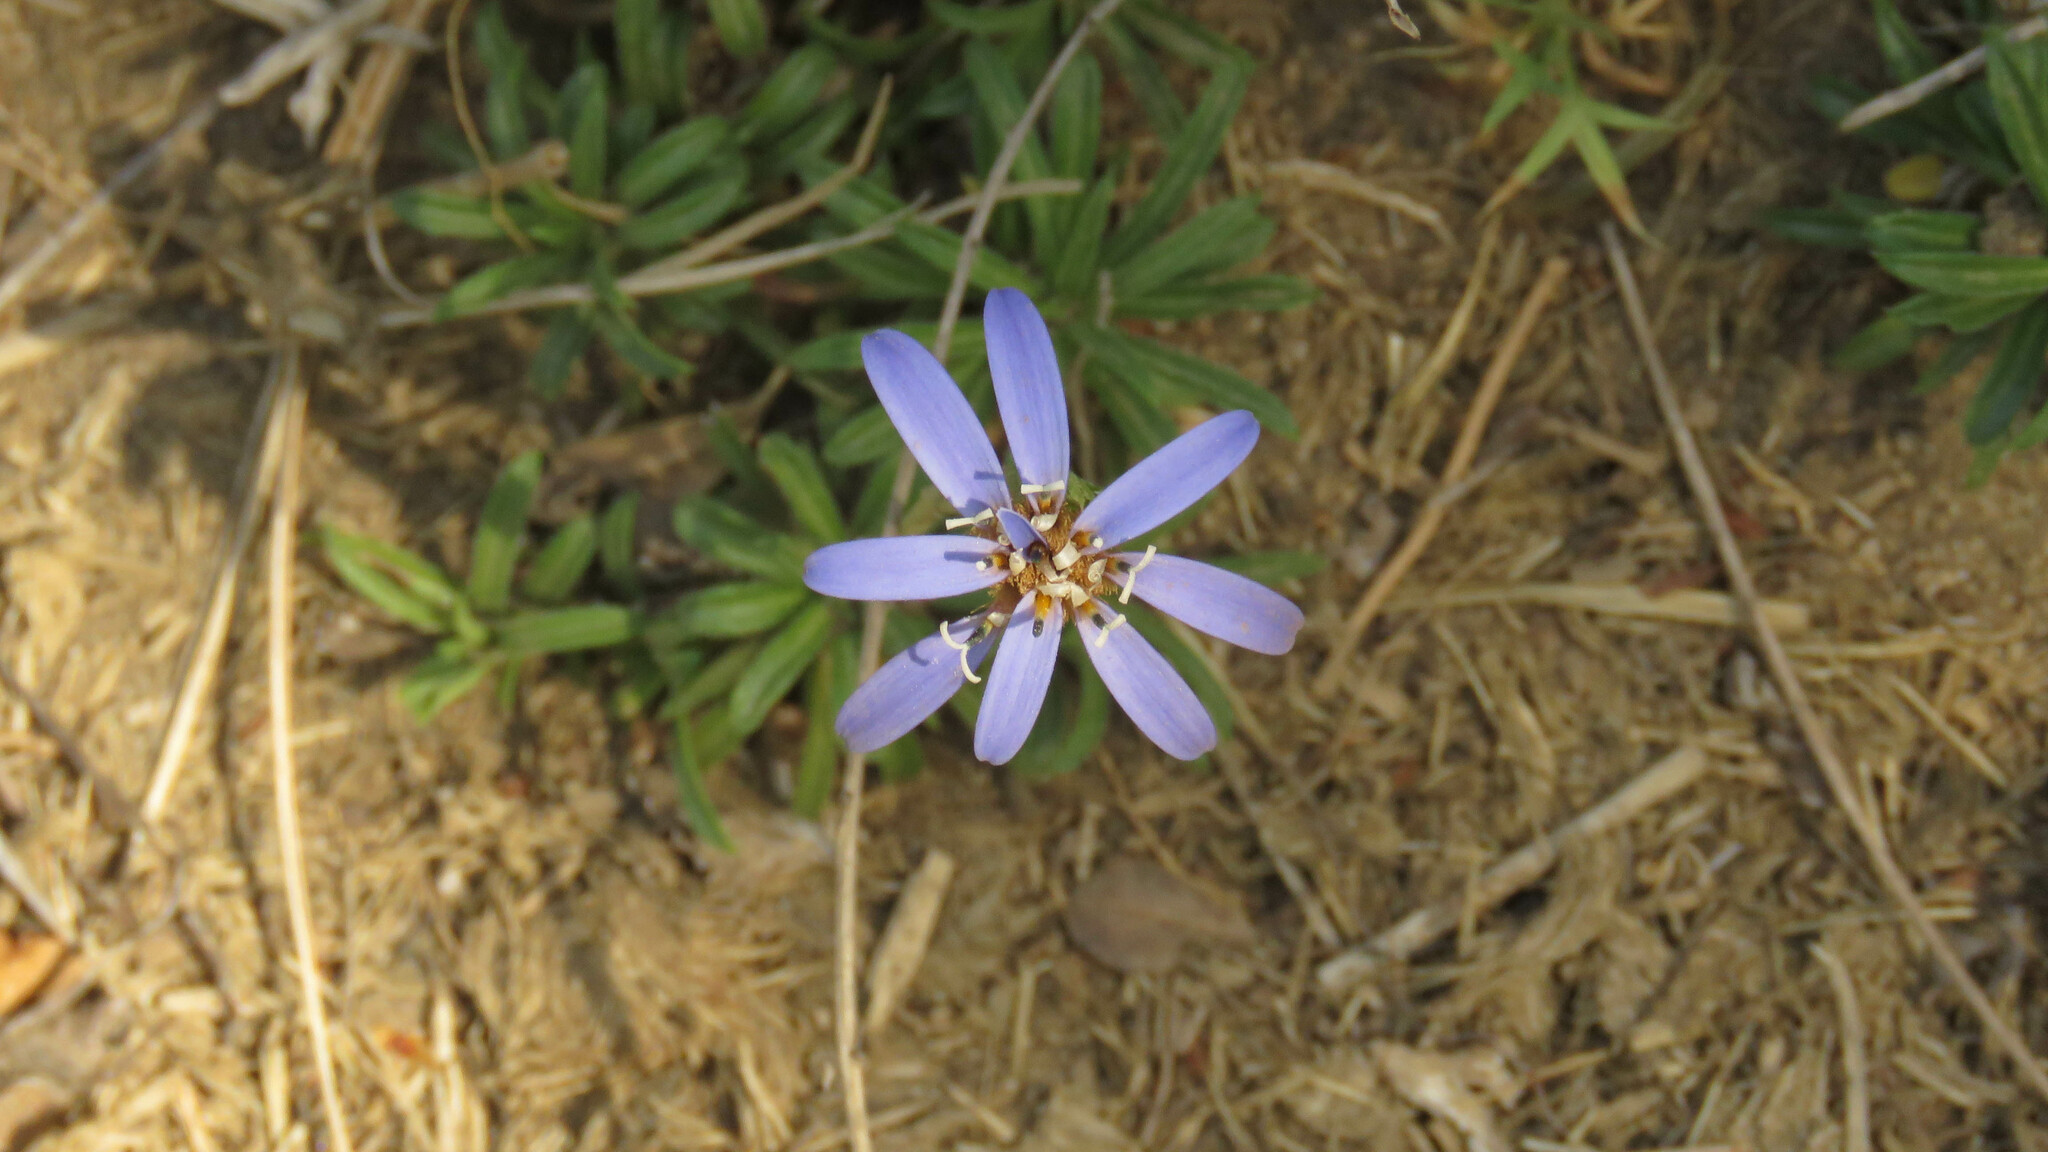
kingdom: Plantae
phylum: Tracheophyta
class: Magnoliopsida
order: Asterales
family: Asteraceae
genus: Perezia
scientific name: Perezia recurvata
